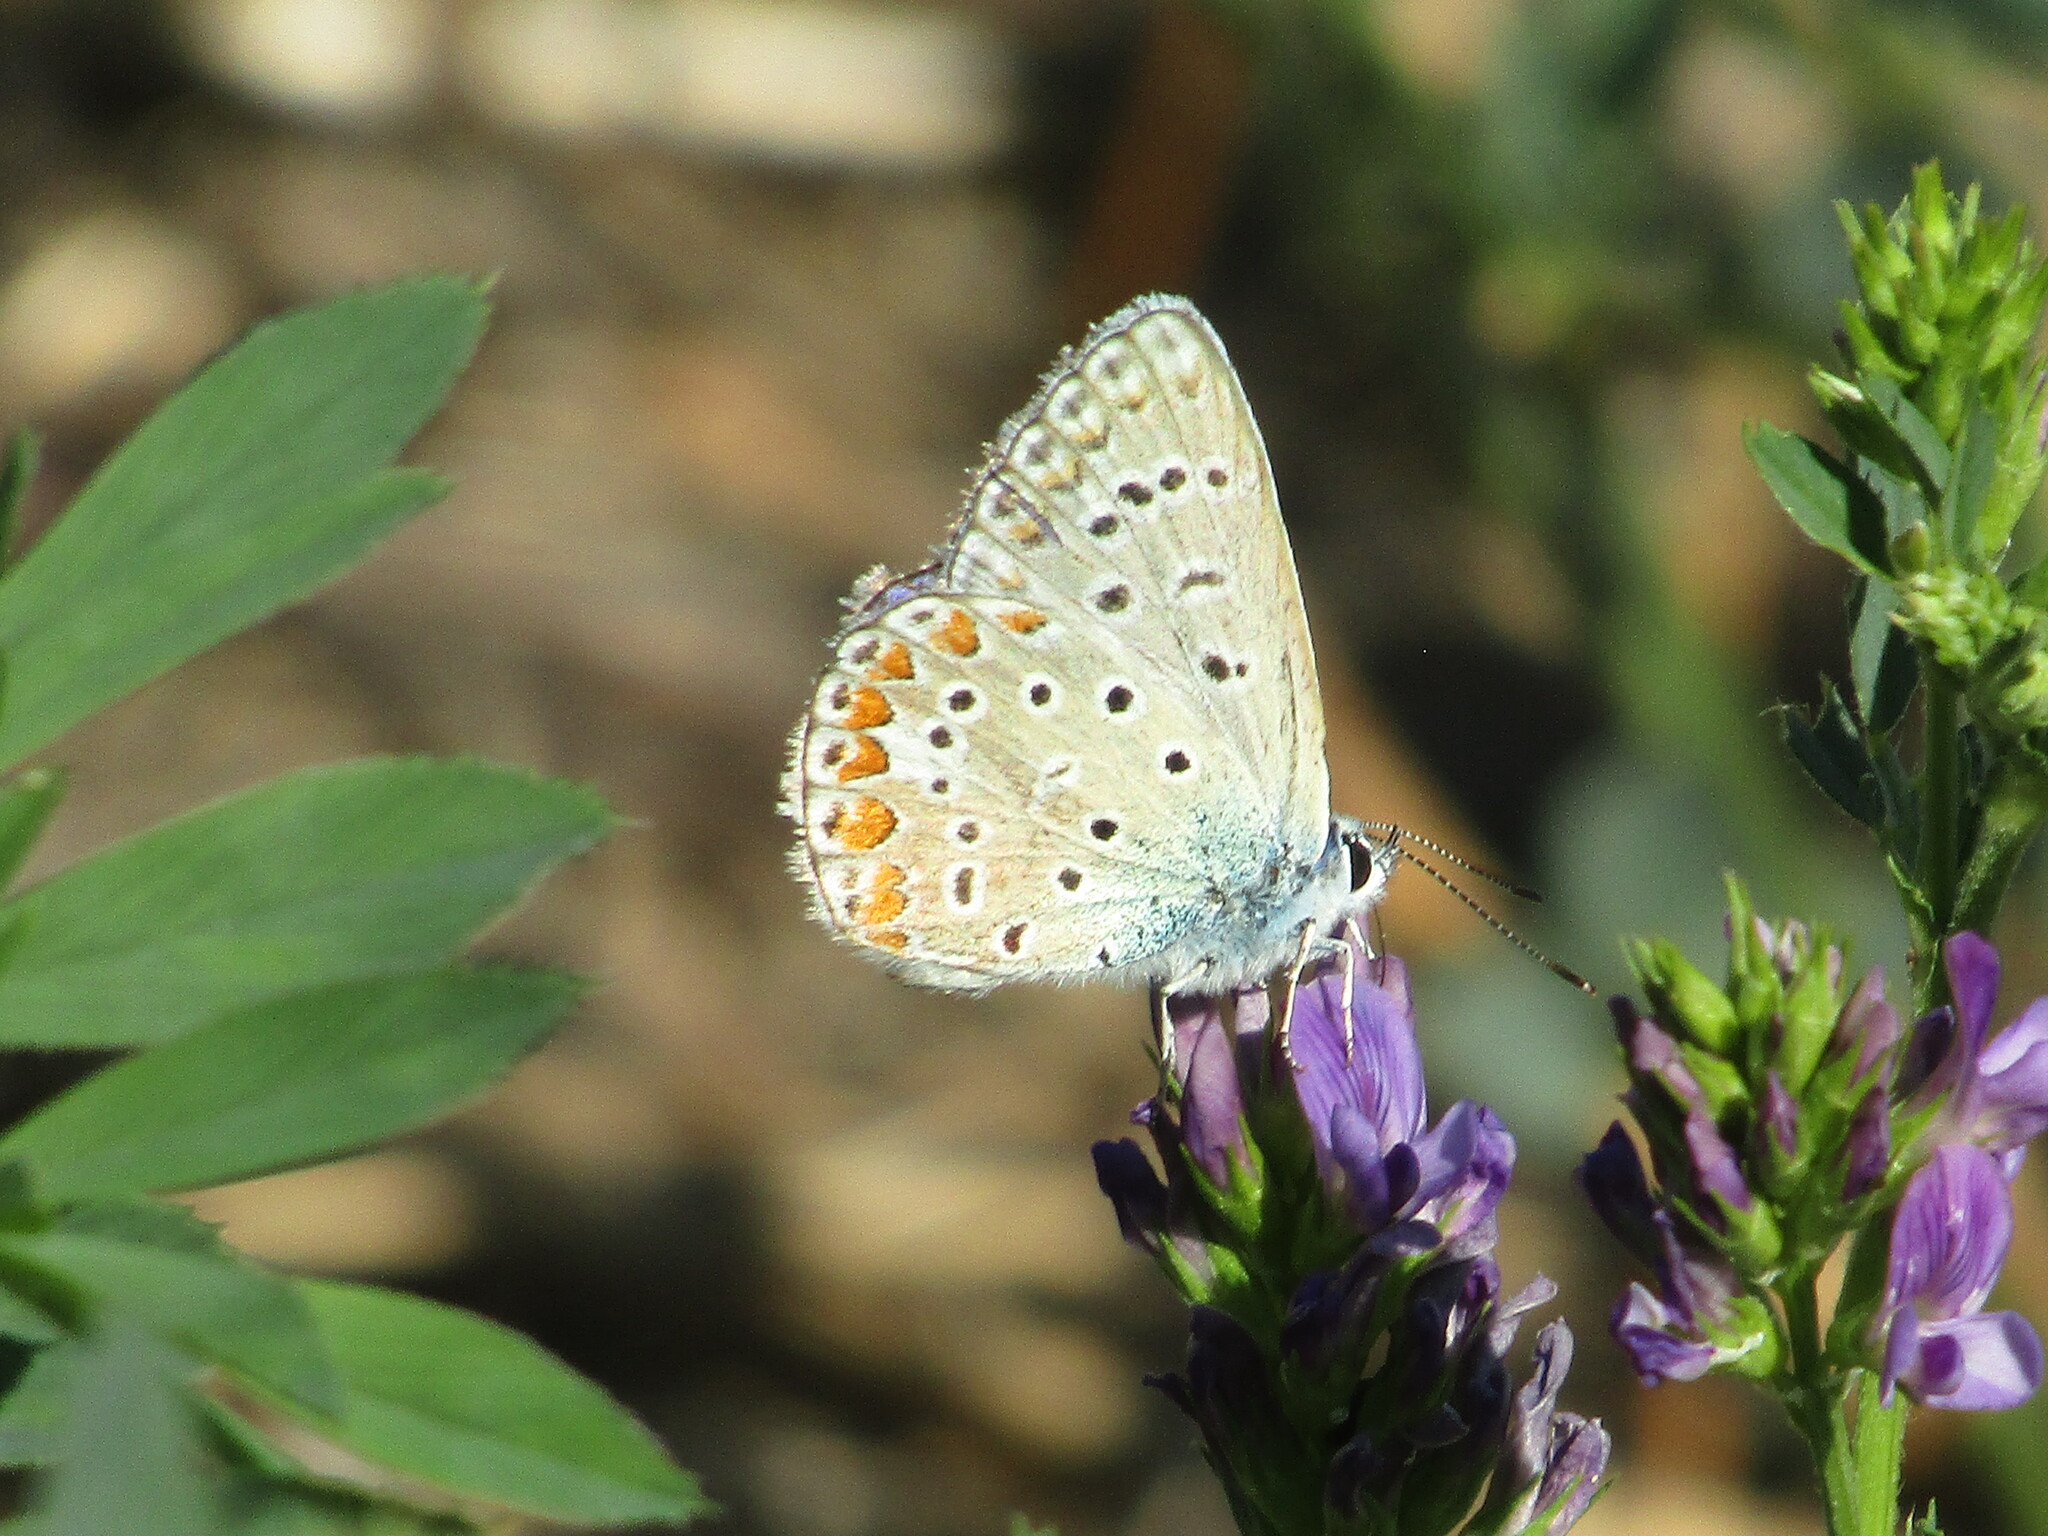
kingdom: Animalia
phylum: Arthropoda
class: Insecta
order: Lepidoptera
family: Lycaenidae
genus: Polyommatus
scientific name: Polyommatus icarus
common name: Common blue
